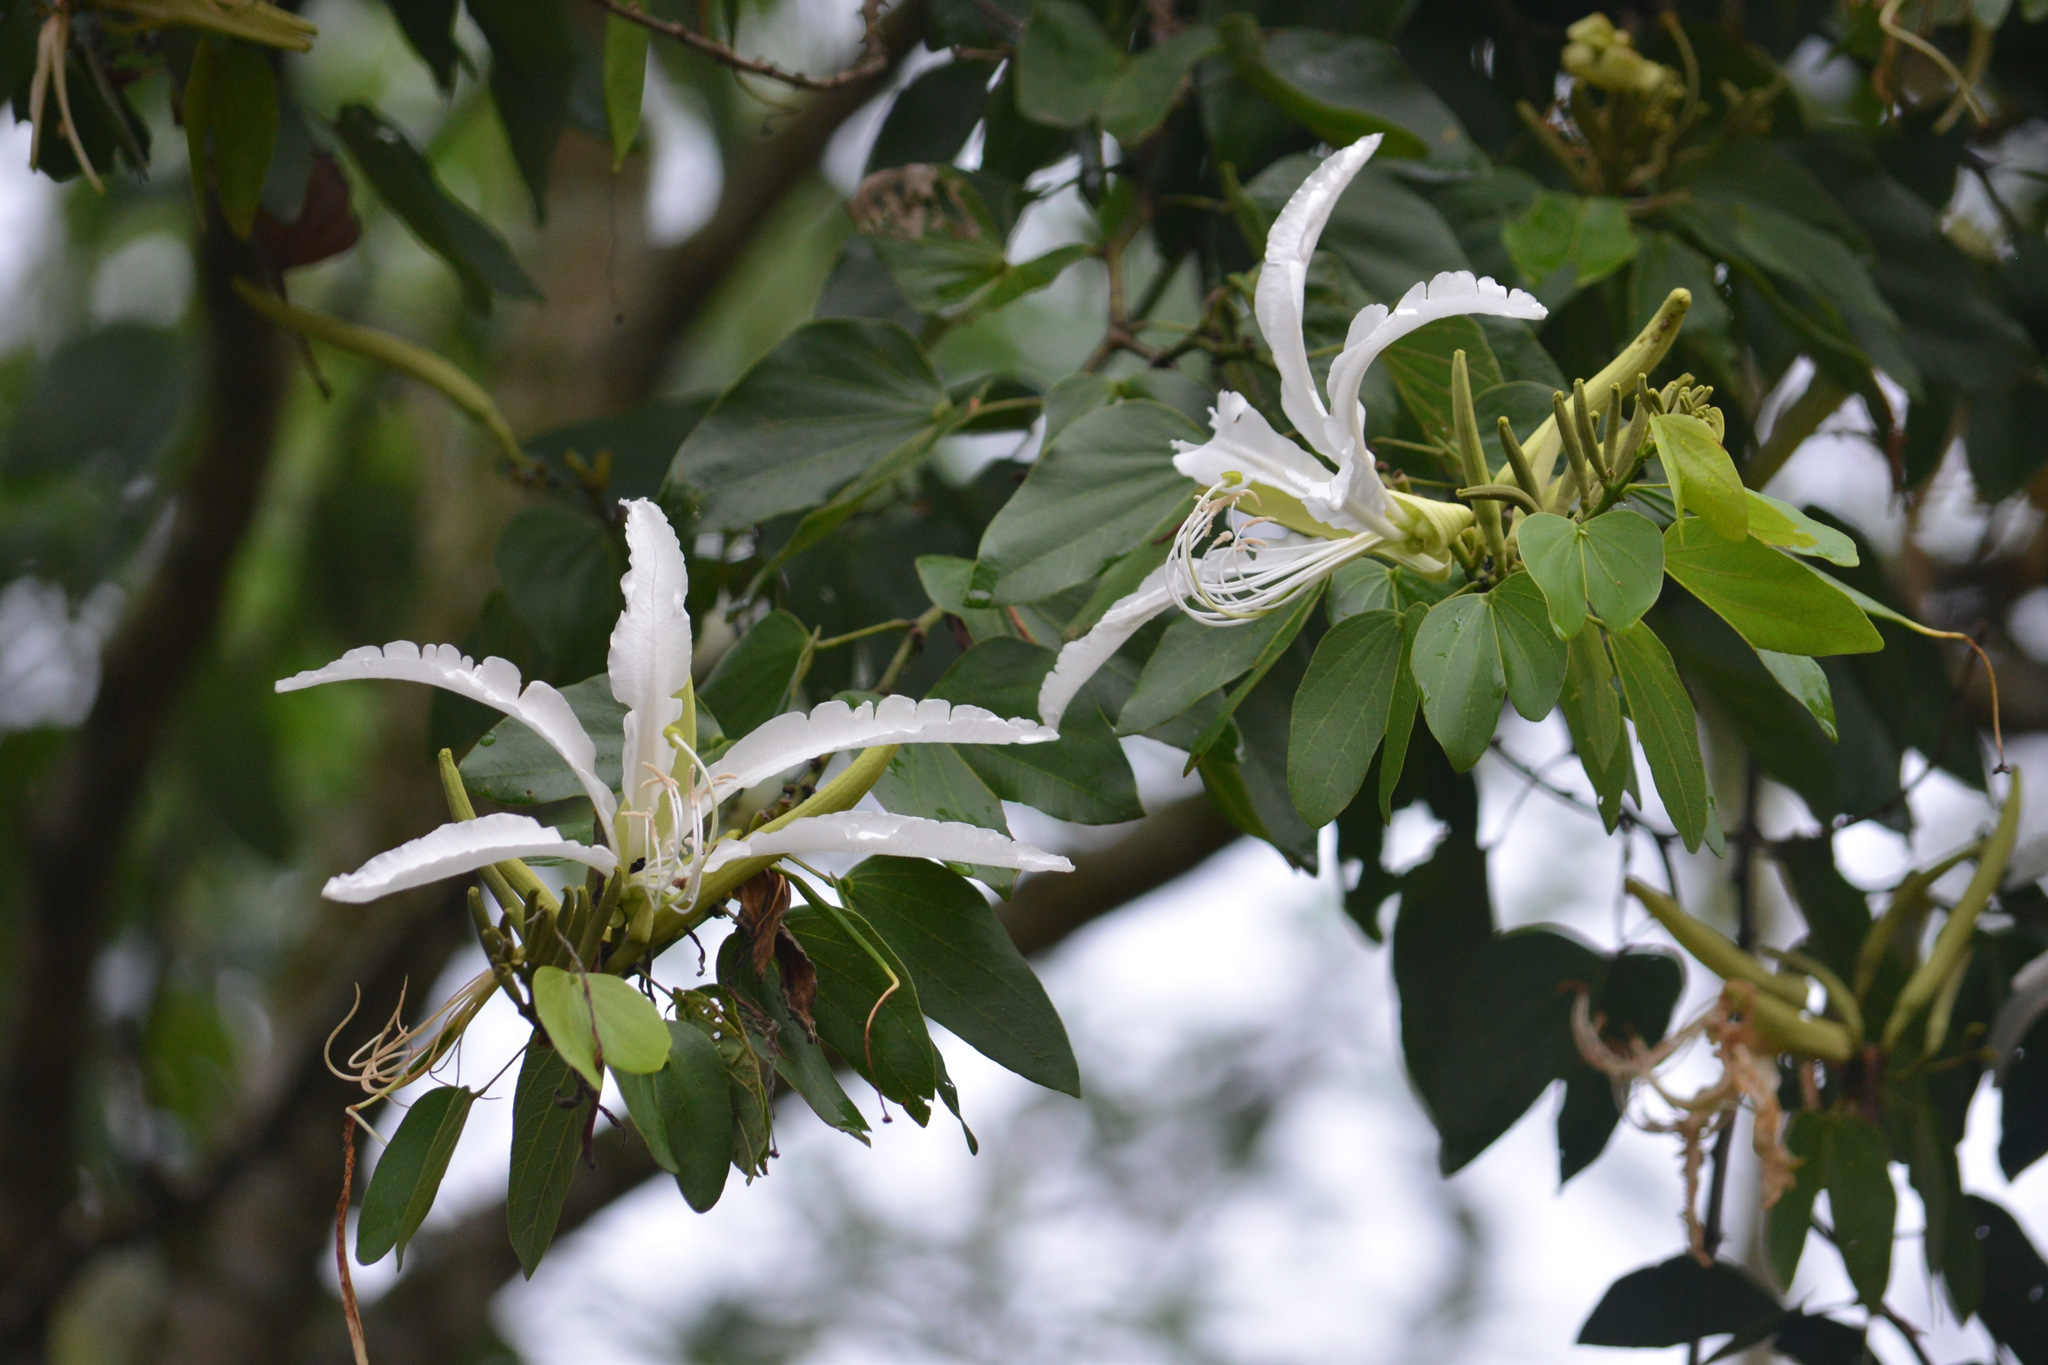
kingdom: Plantae
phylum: Tracheophyta
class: Magnoliopsida
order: Fabales
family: Fabaceae
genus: Bauhinia
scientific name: Bauhinia forficata
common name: Orchid tree
